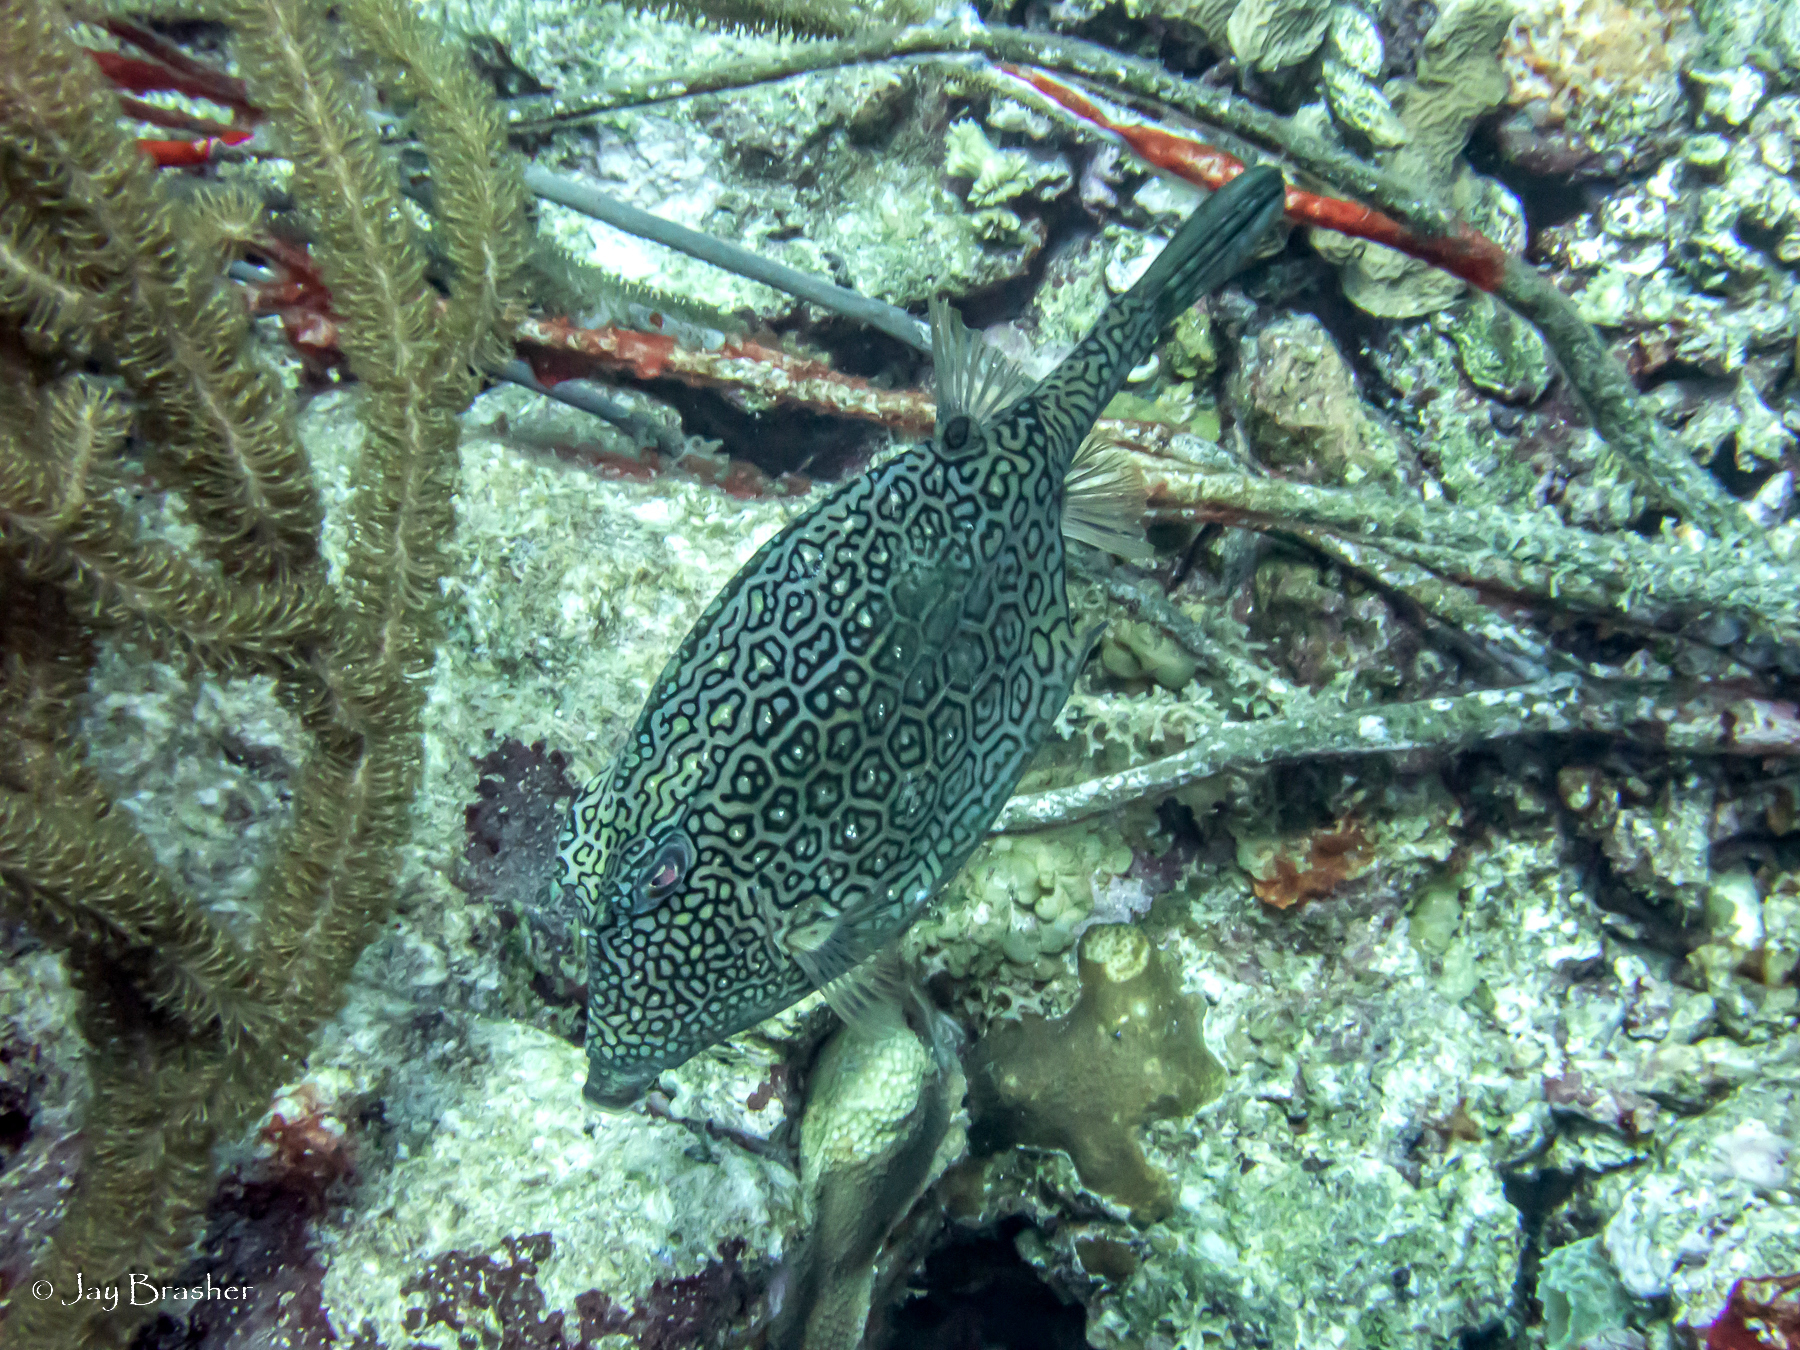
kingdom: Animalia
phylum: Chordata
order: Tetraodontiformes
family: Ostraciidae
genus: Acanthostracion
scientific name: Acanthostracion polygonius
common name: Honeycomb cowfish
